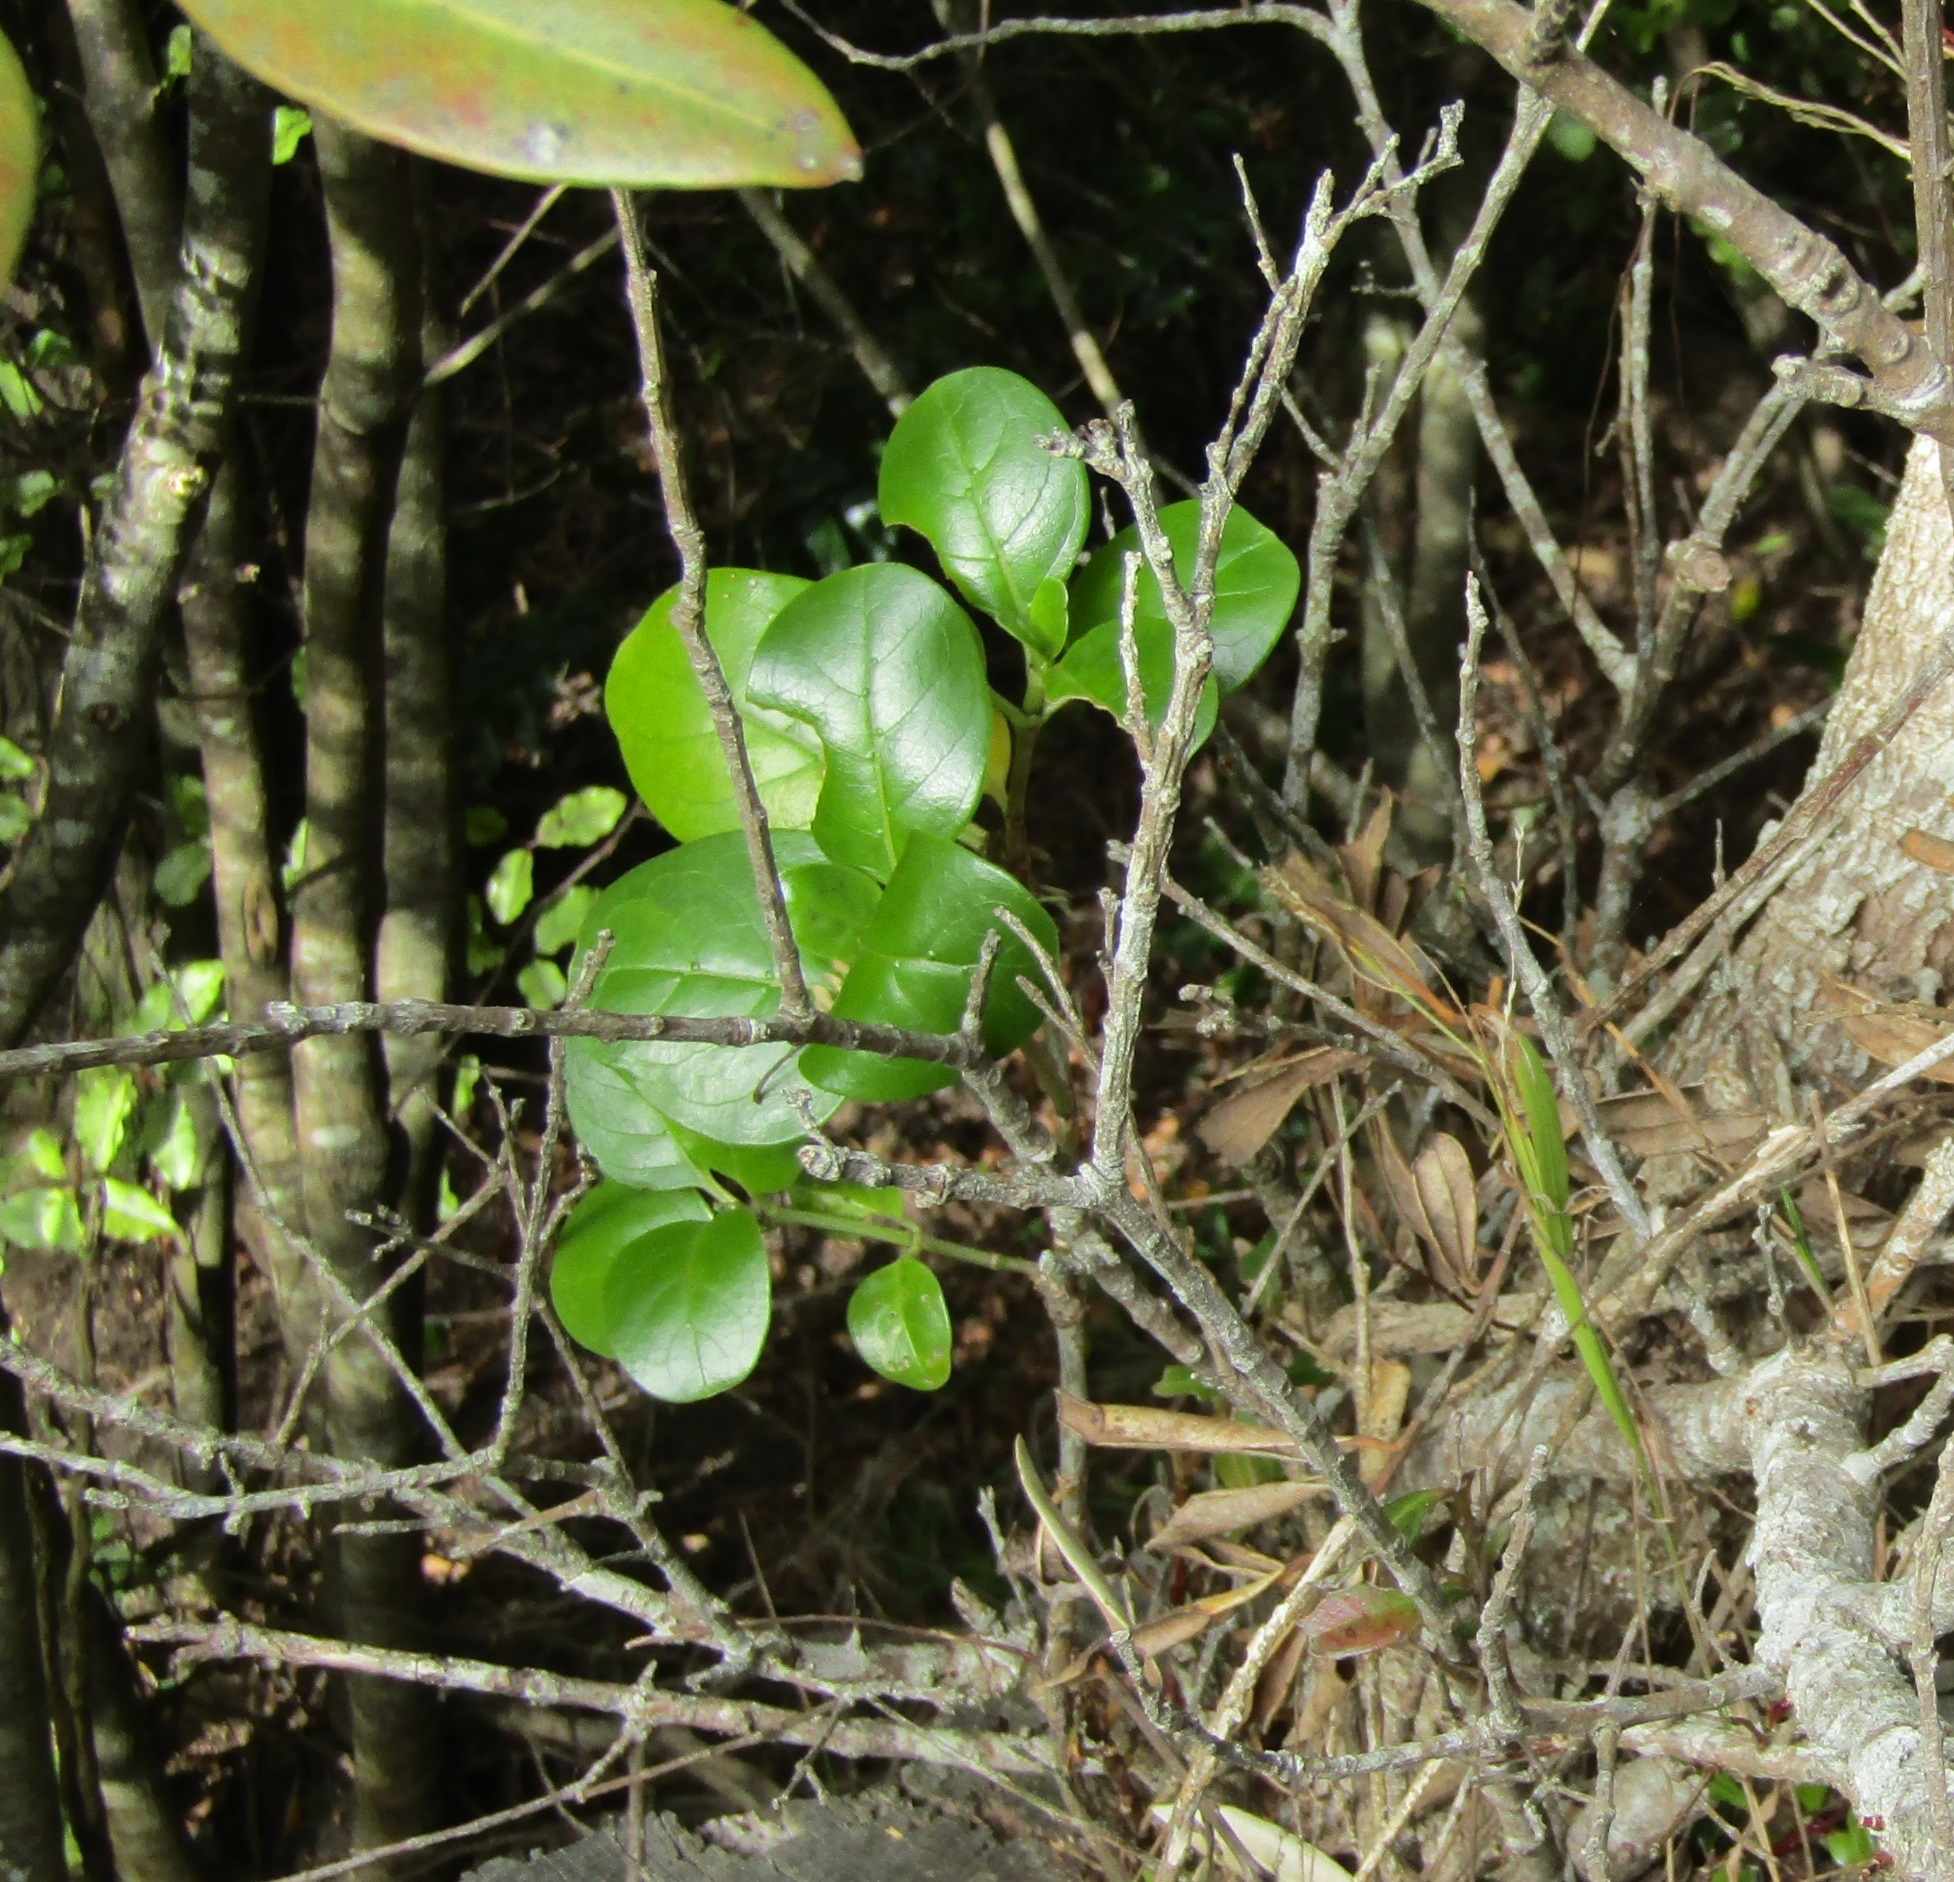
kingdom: Plantae
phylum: Tracheophyta
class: Magnoliopsida
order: Gentianales
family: Rubiaceae
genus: Coprosma
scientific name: Coprosma repens
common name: Tree bedstraw
